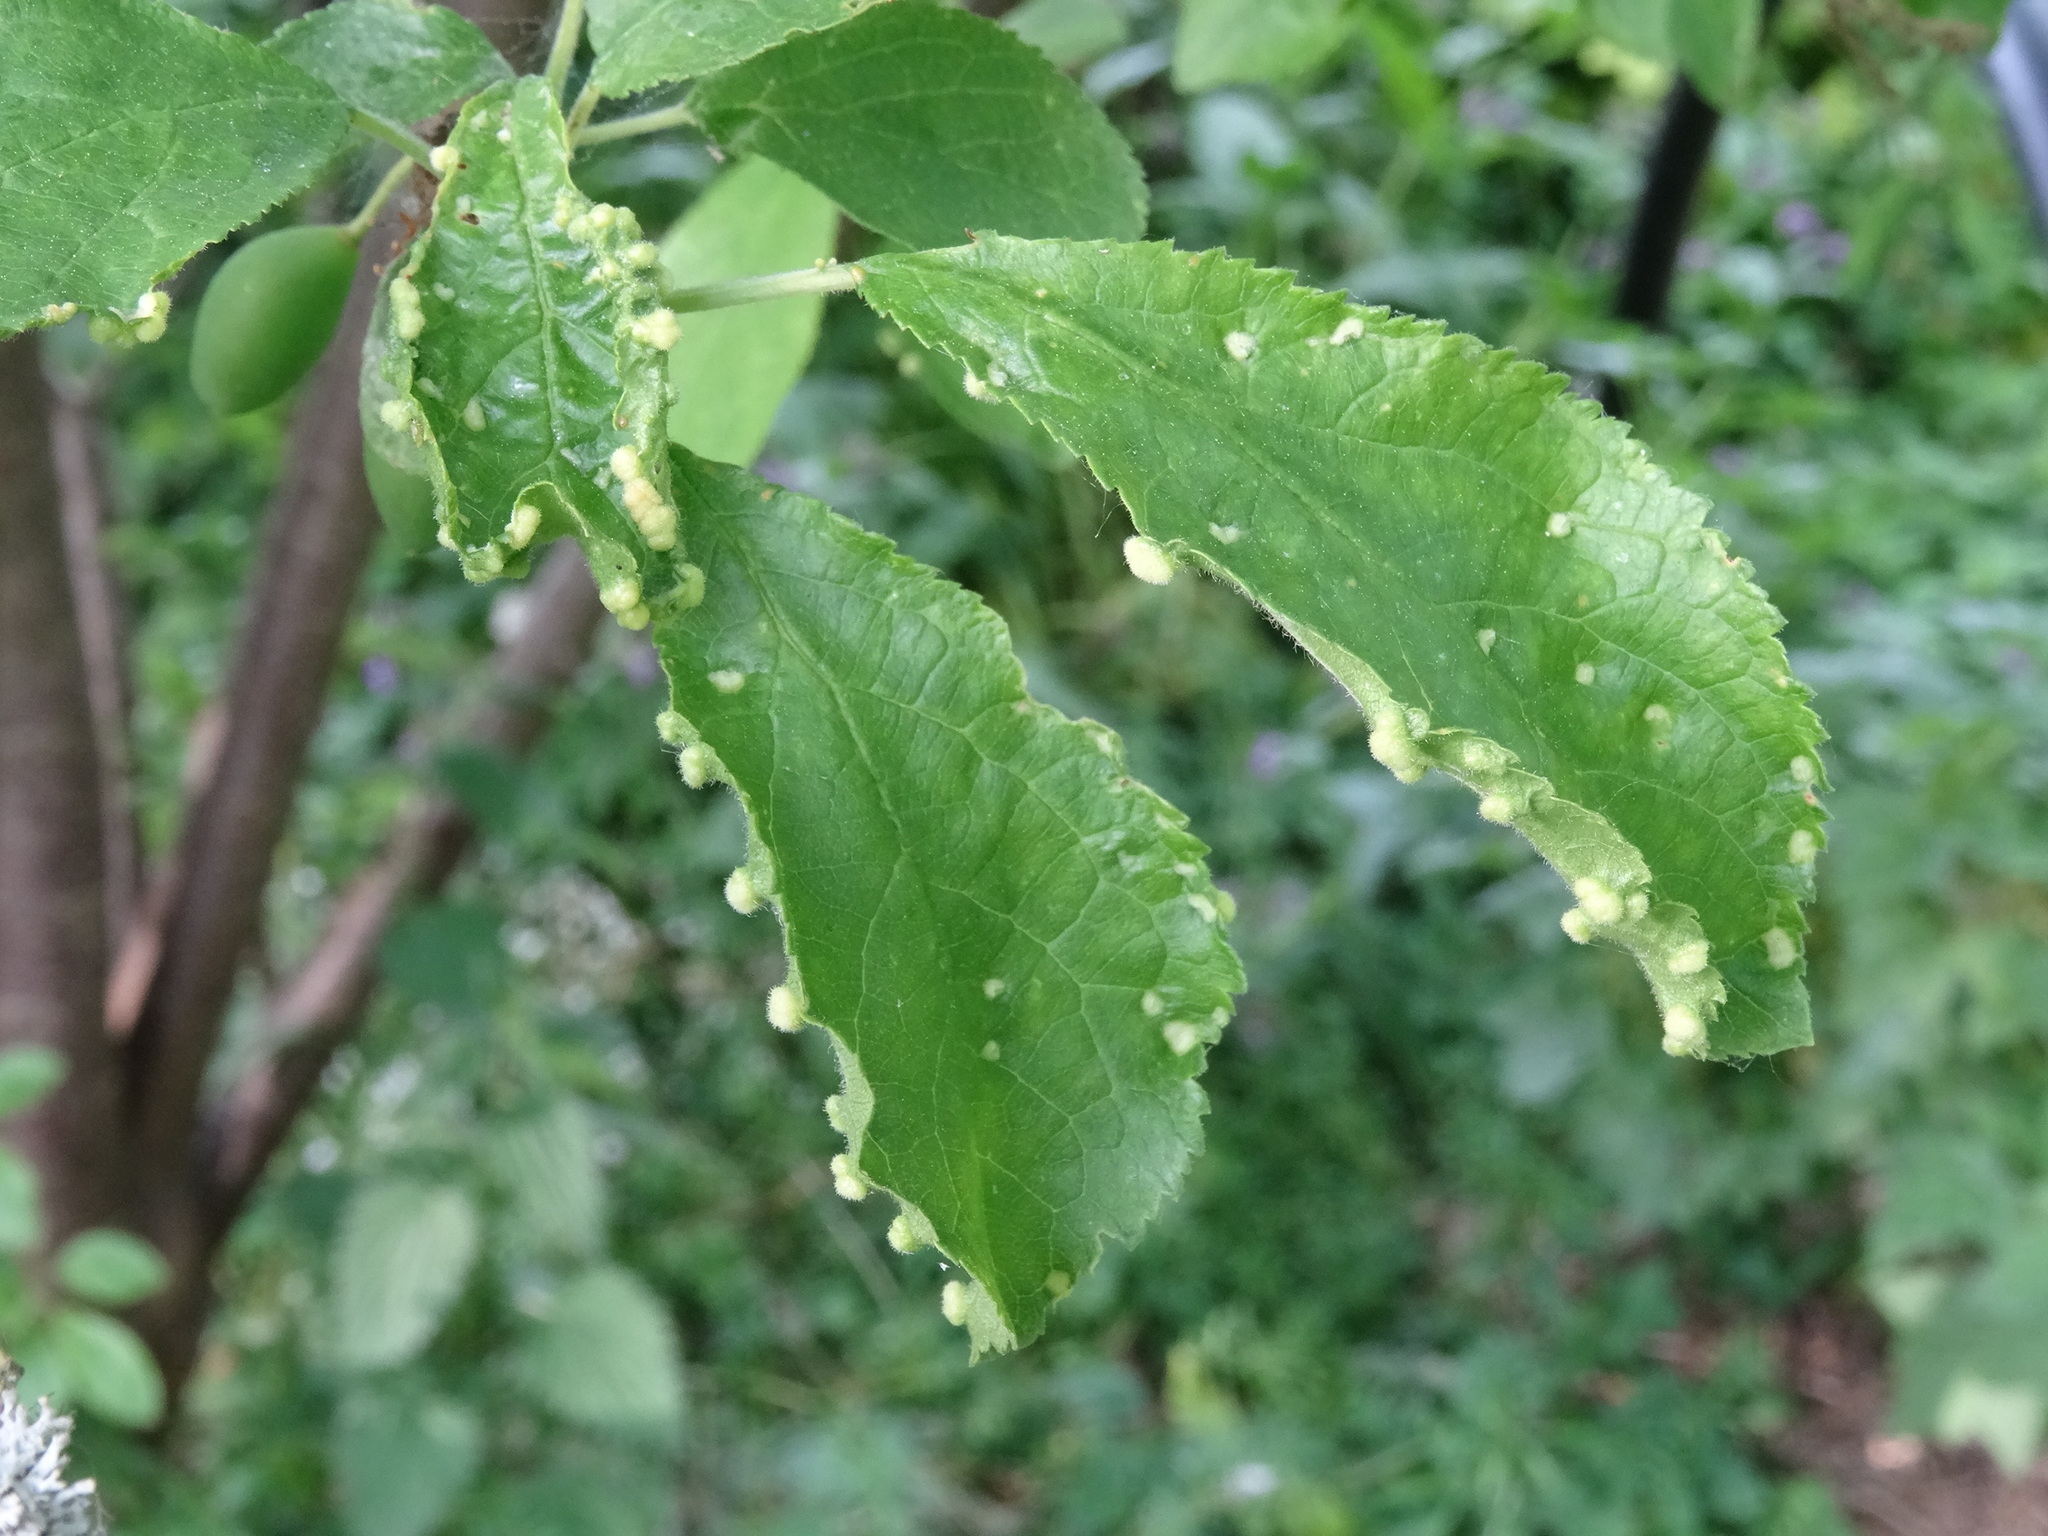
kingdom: Animalia
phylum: Arthropoda
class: Arachnida
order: Trombidiformes
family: Eriophyidae
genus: Eriophyes
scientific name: Eriophyes prunispinosae
